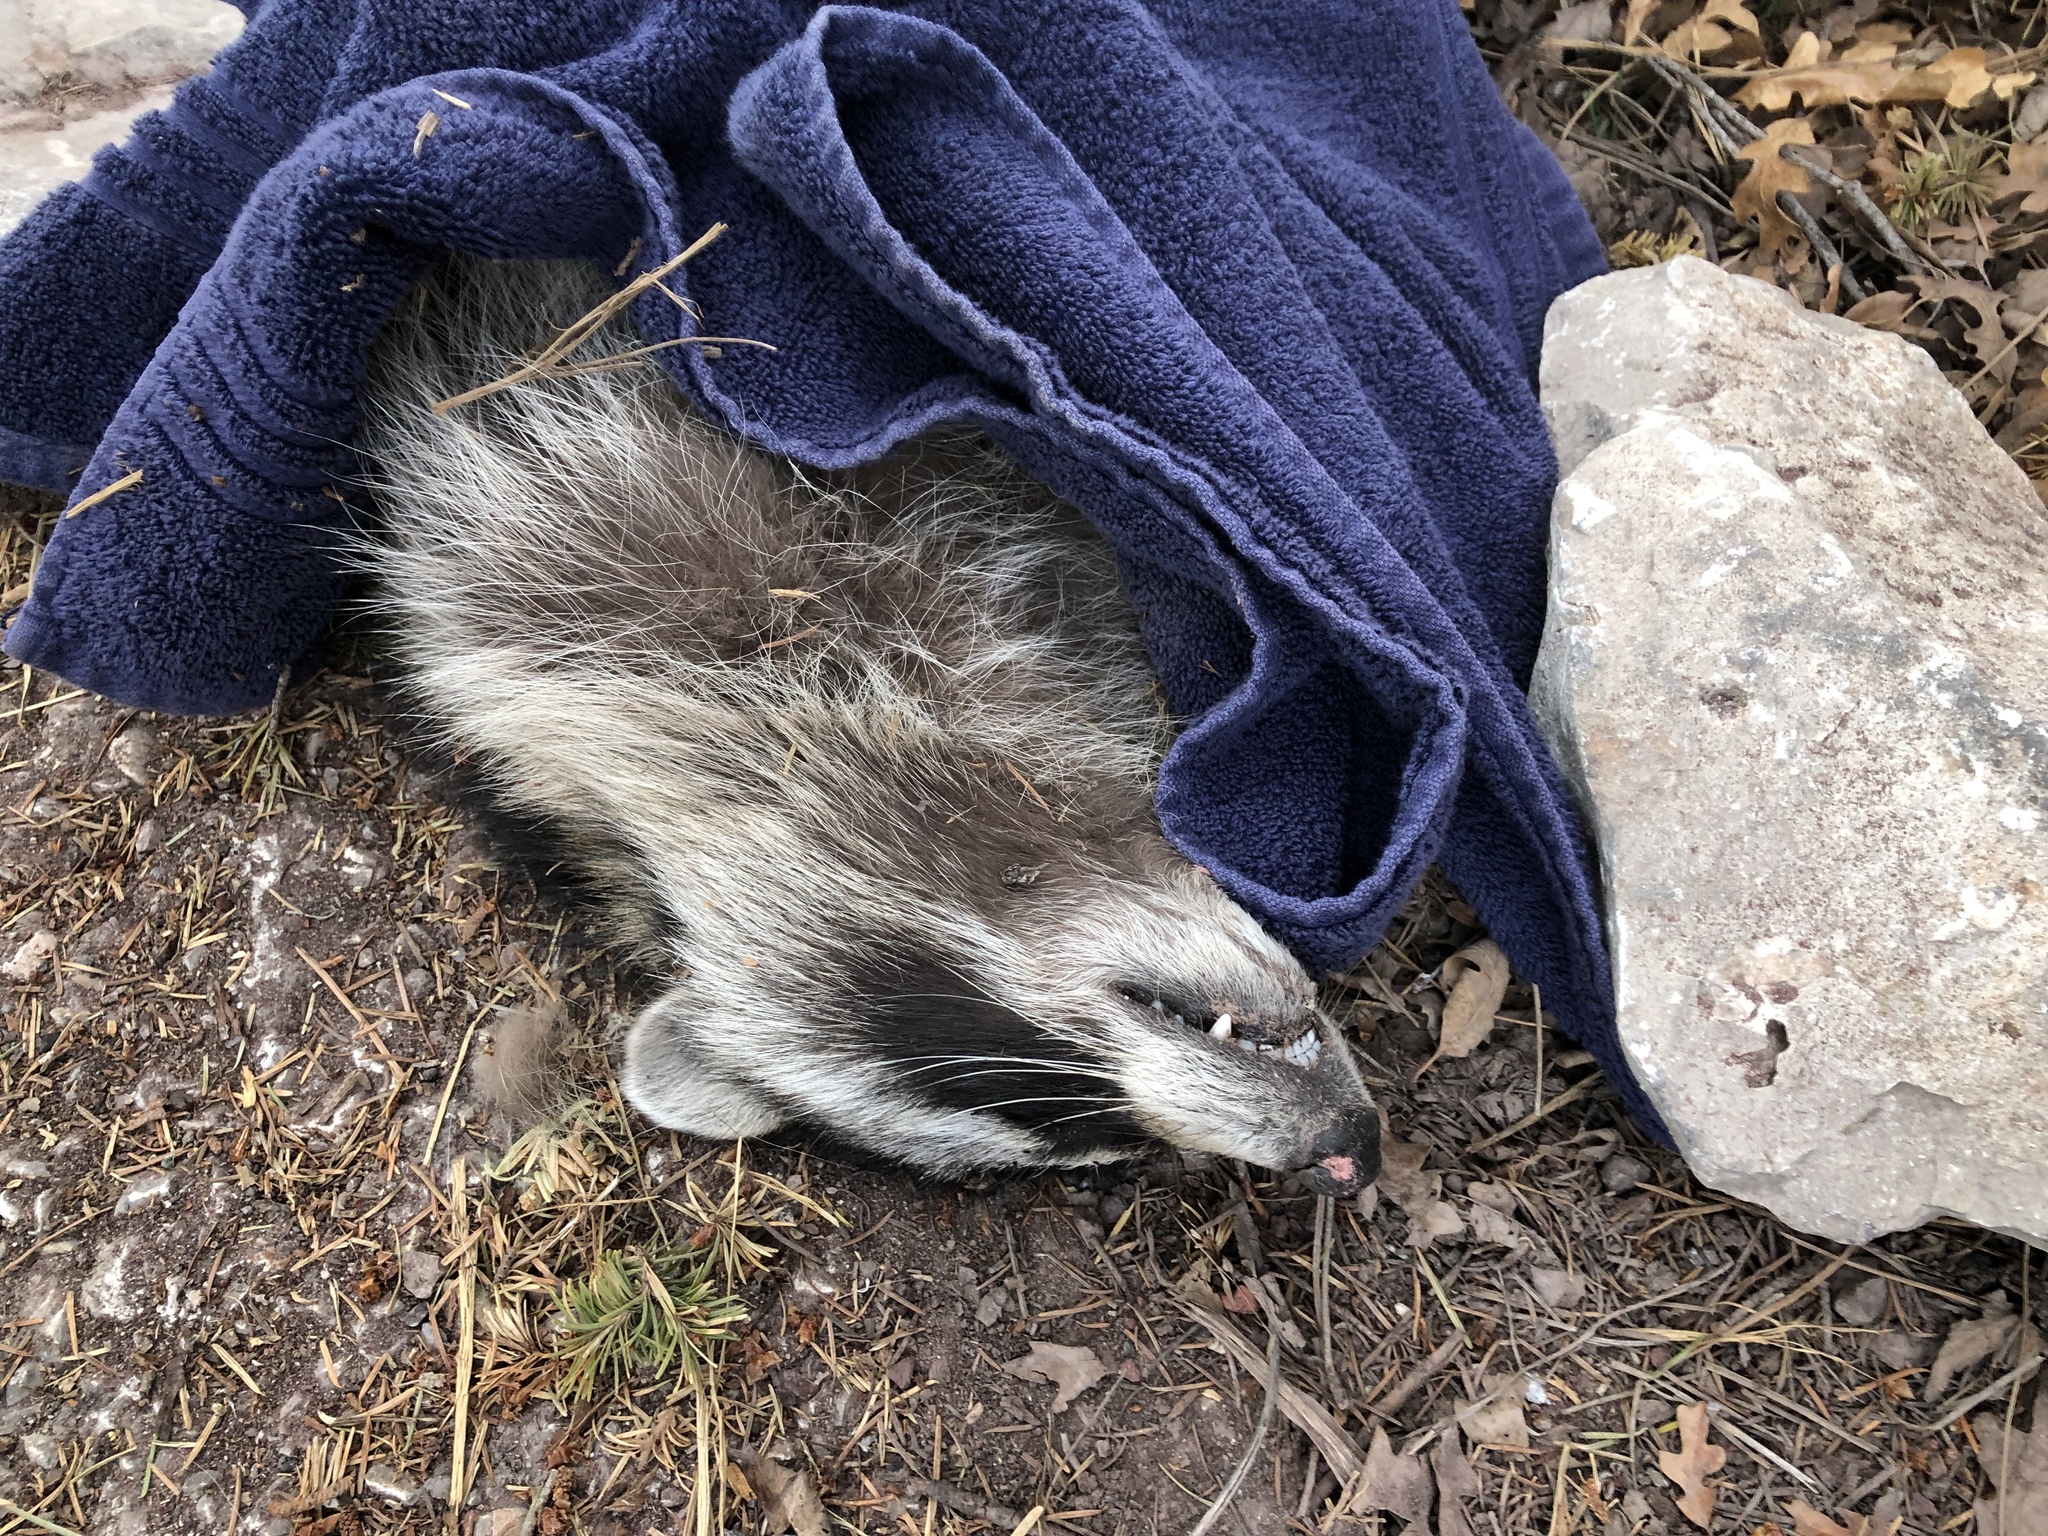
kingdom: Animalia
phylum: Chordata
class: Mammalia
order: Carnivora
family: Procyonidae
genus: Procyon
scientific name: Procyon lotor
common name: Raccoon
